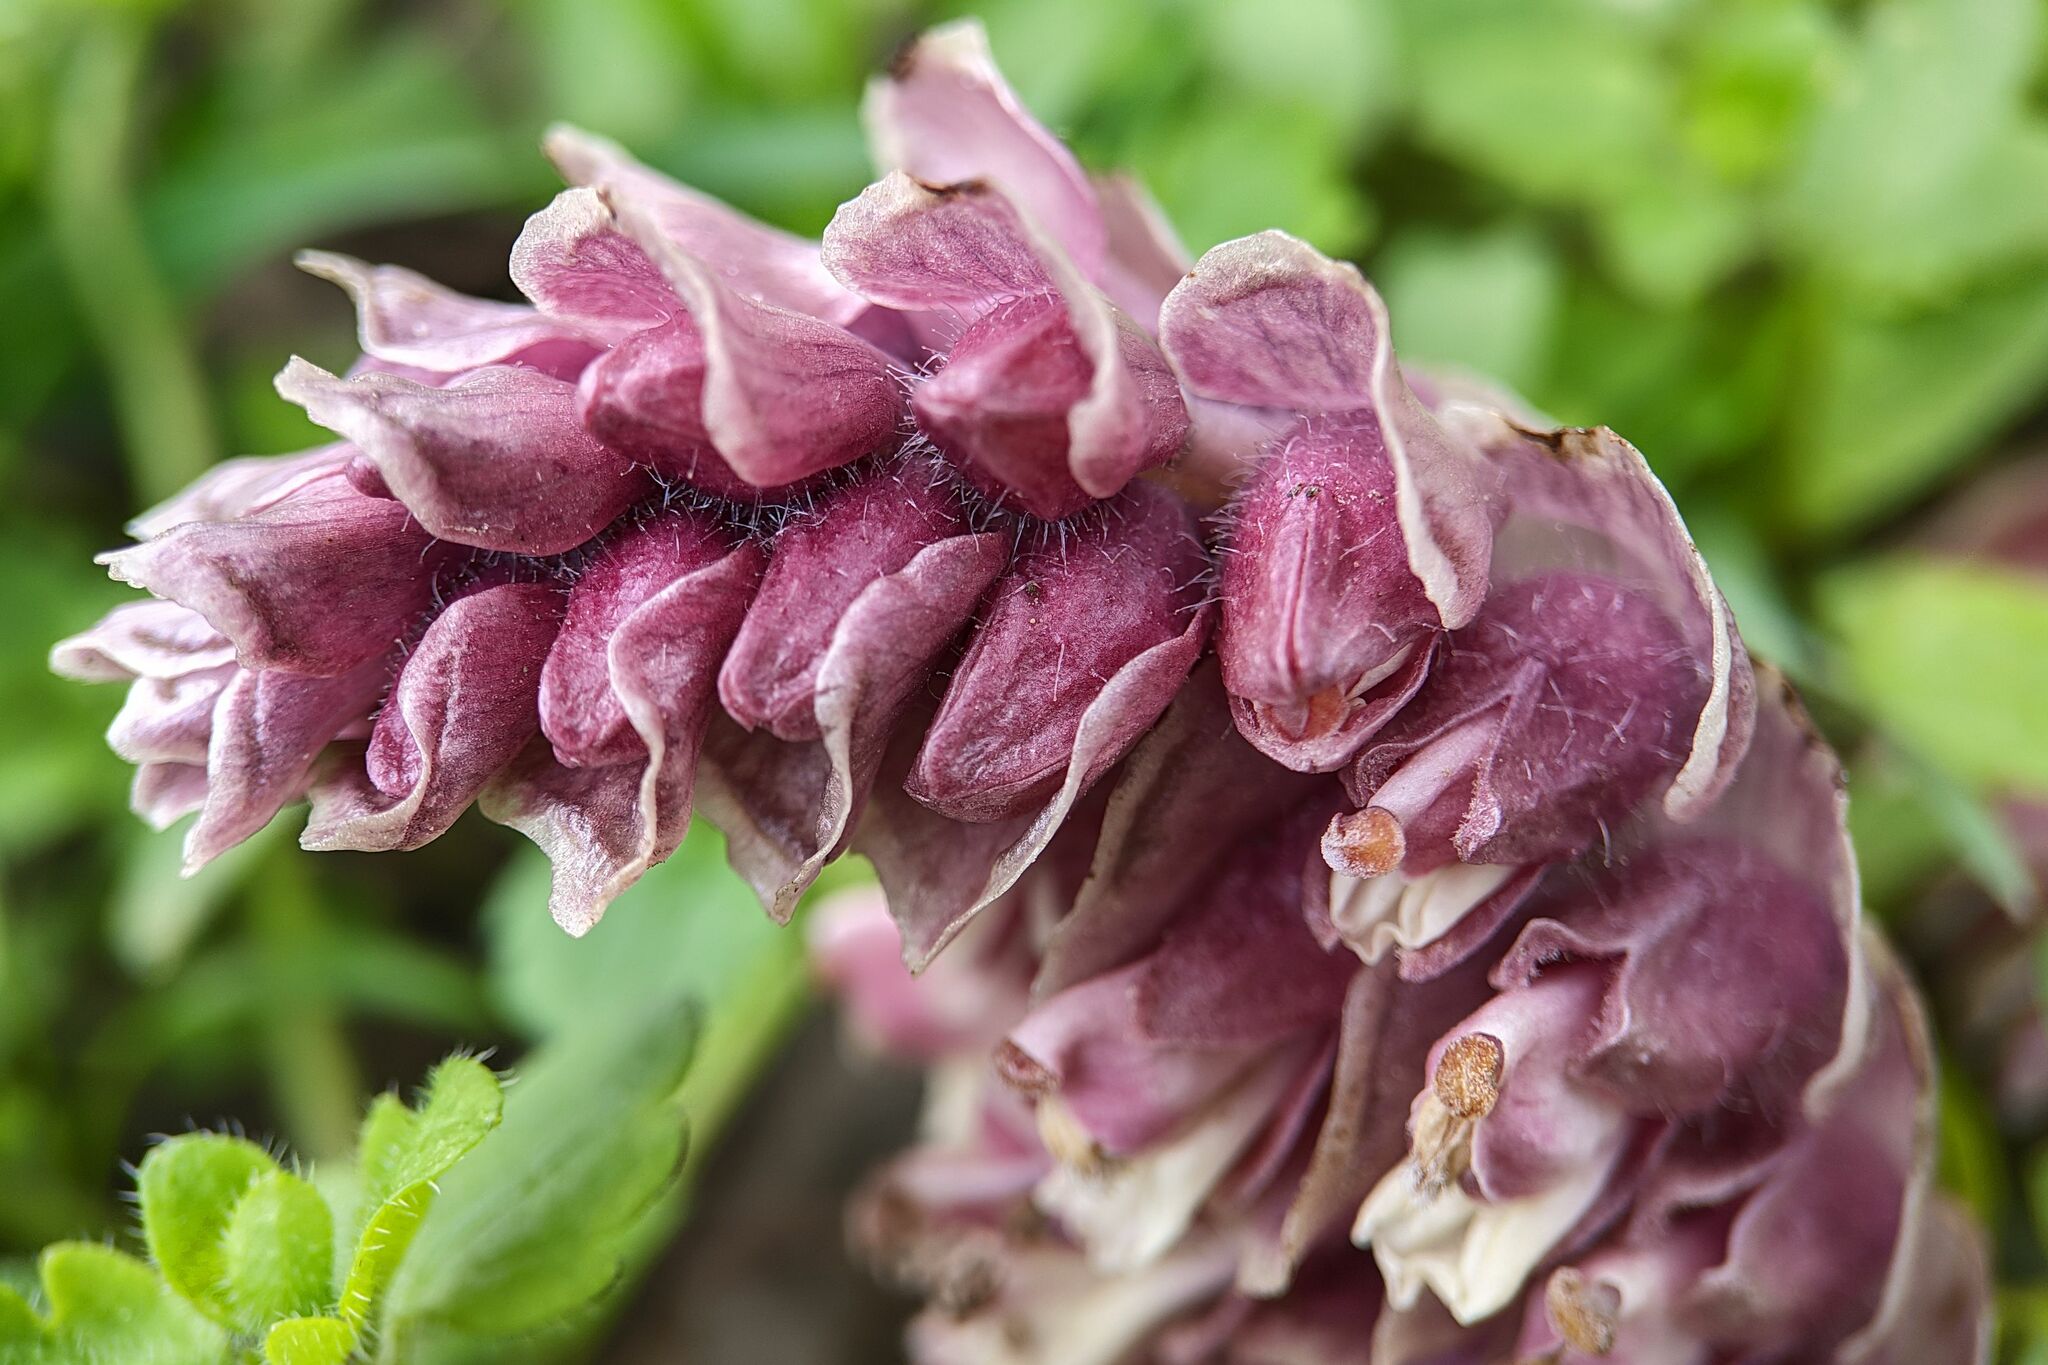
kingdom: Plantae
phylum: Tracheophyta
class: Magnoliopsida
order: Lamiales
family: Orobanchaceae
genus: Lathraea
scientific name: Lathraea squamaria
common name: Toothwort
